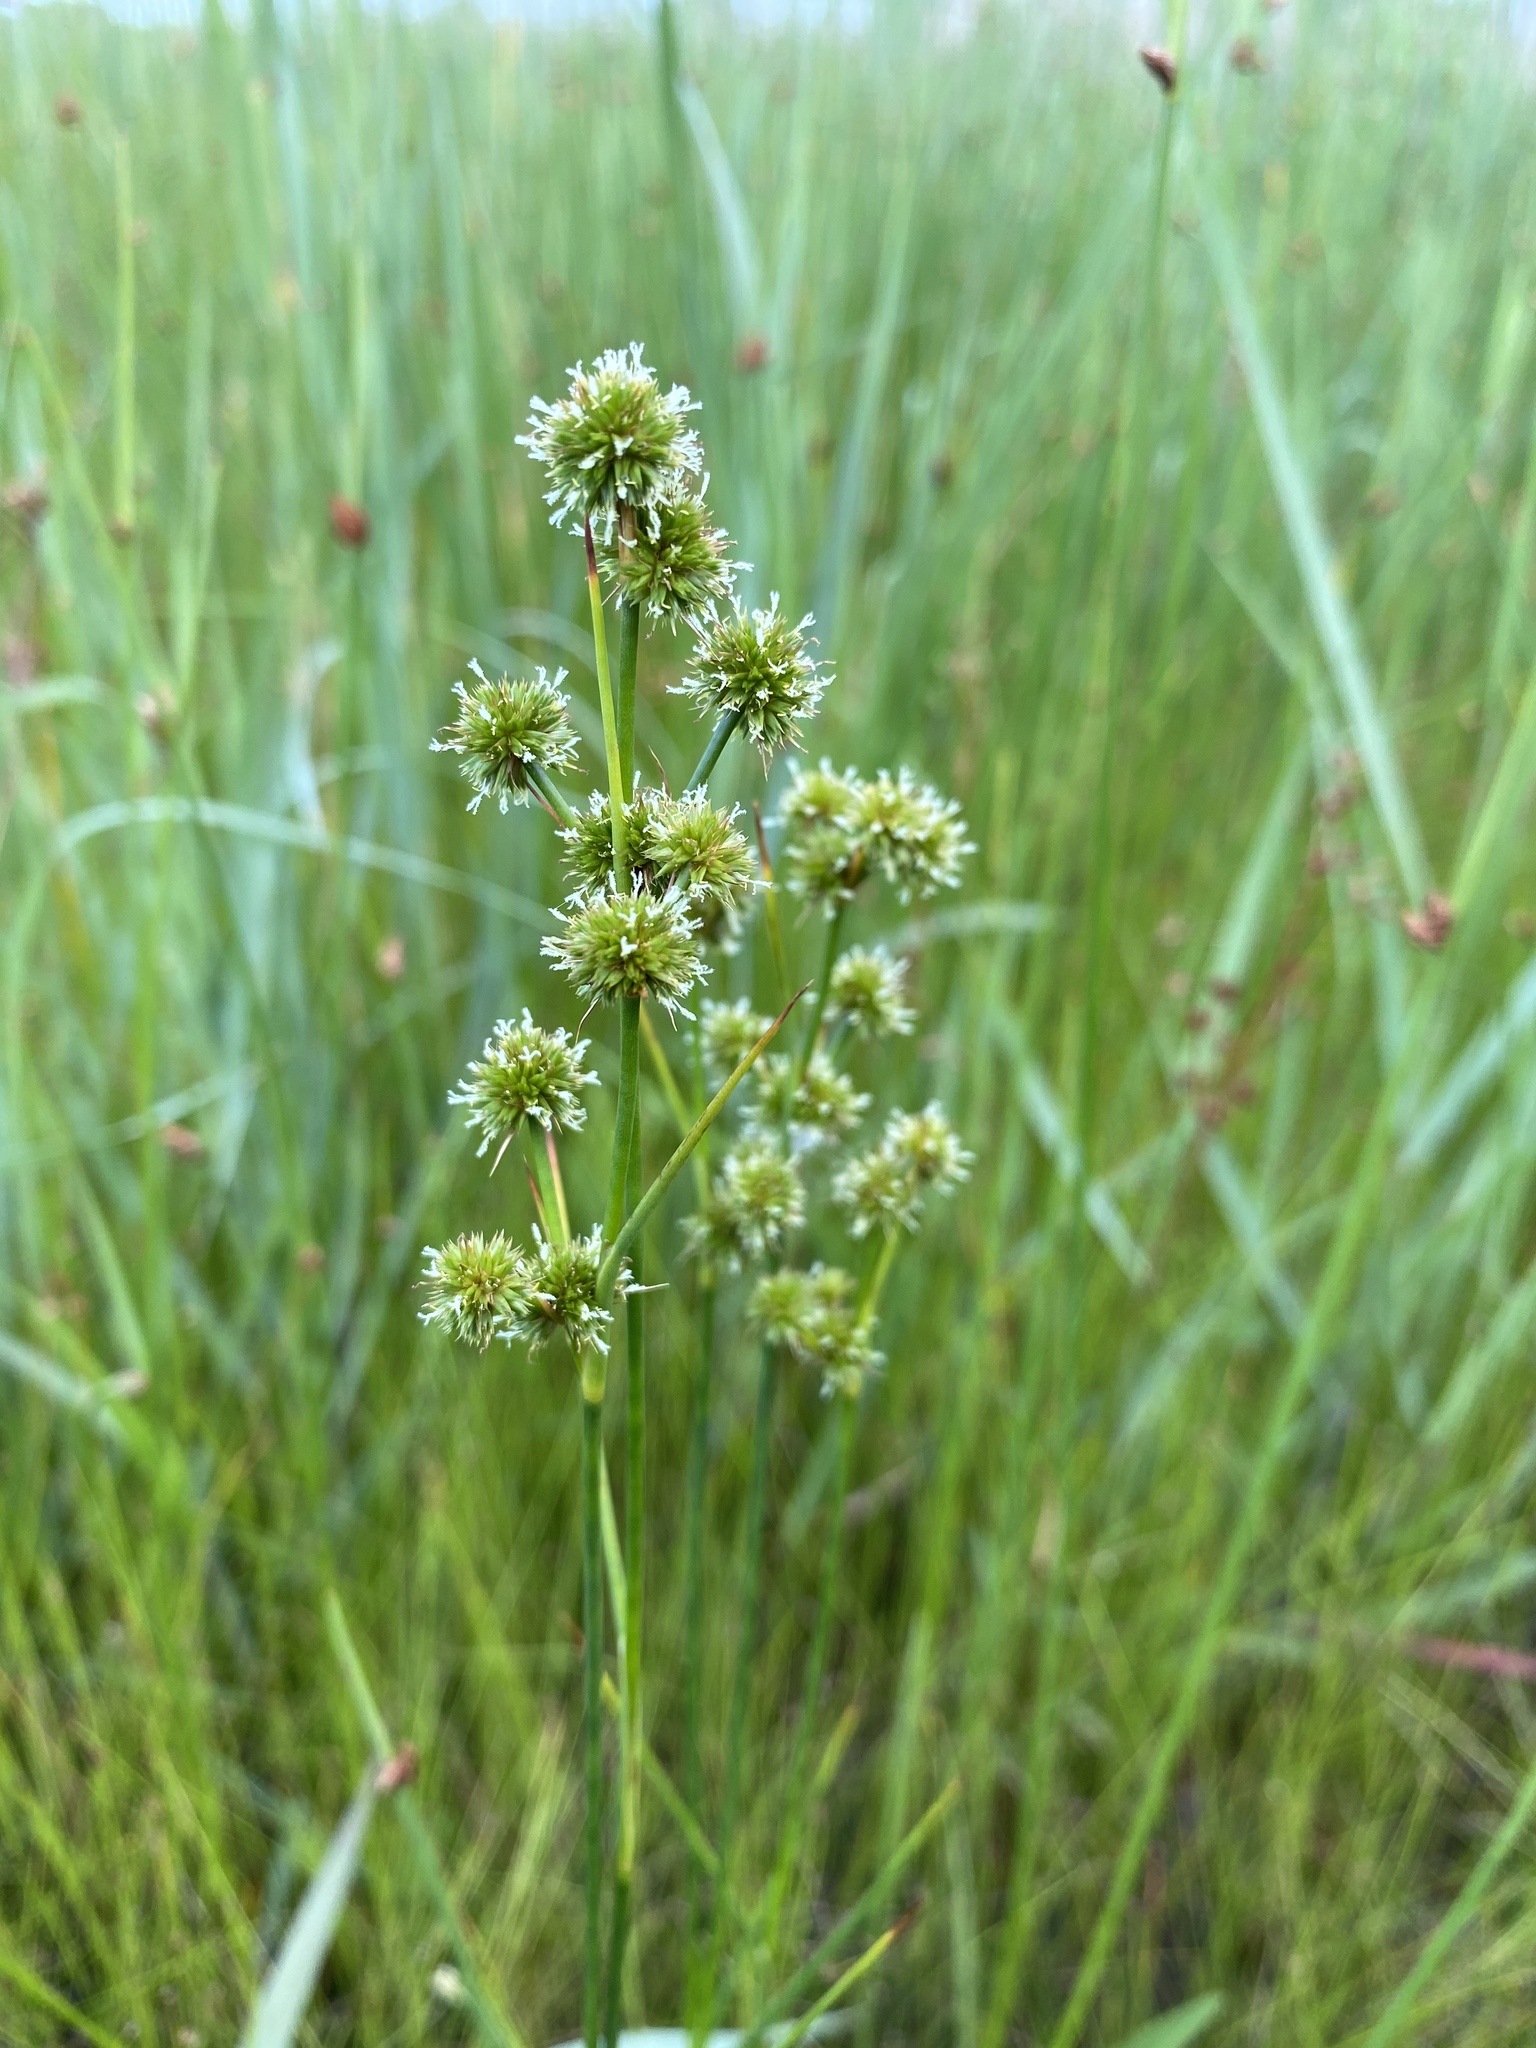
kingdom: Plantae
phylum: Tracheophyta
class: Liliopsida
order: Poales
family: Juncaceae
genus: Juncus
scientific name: Juncus canadensis
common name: Canada rush
